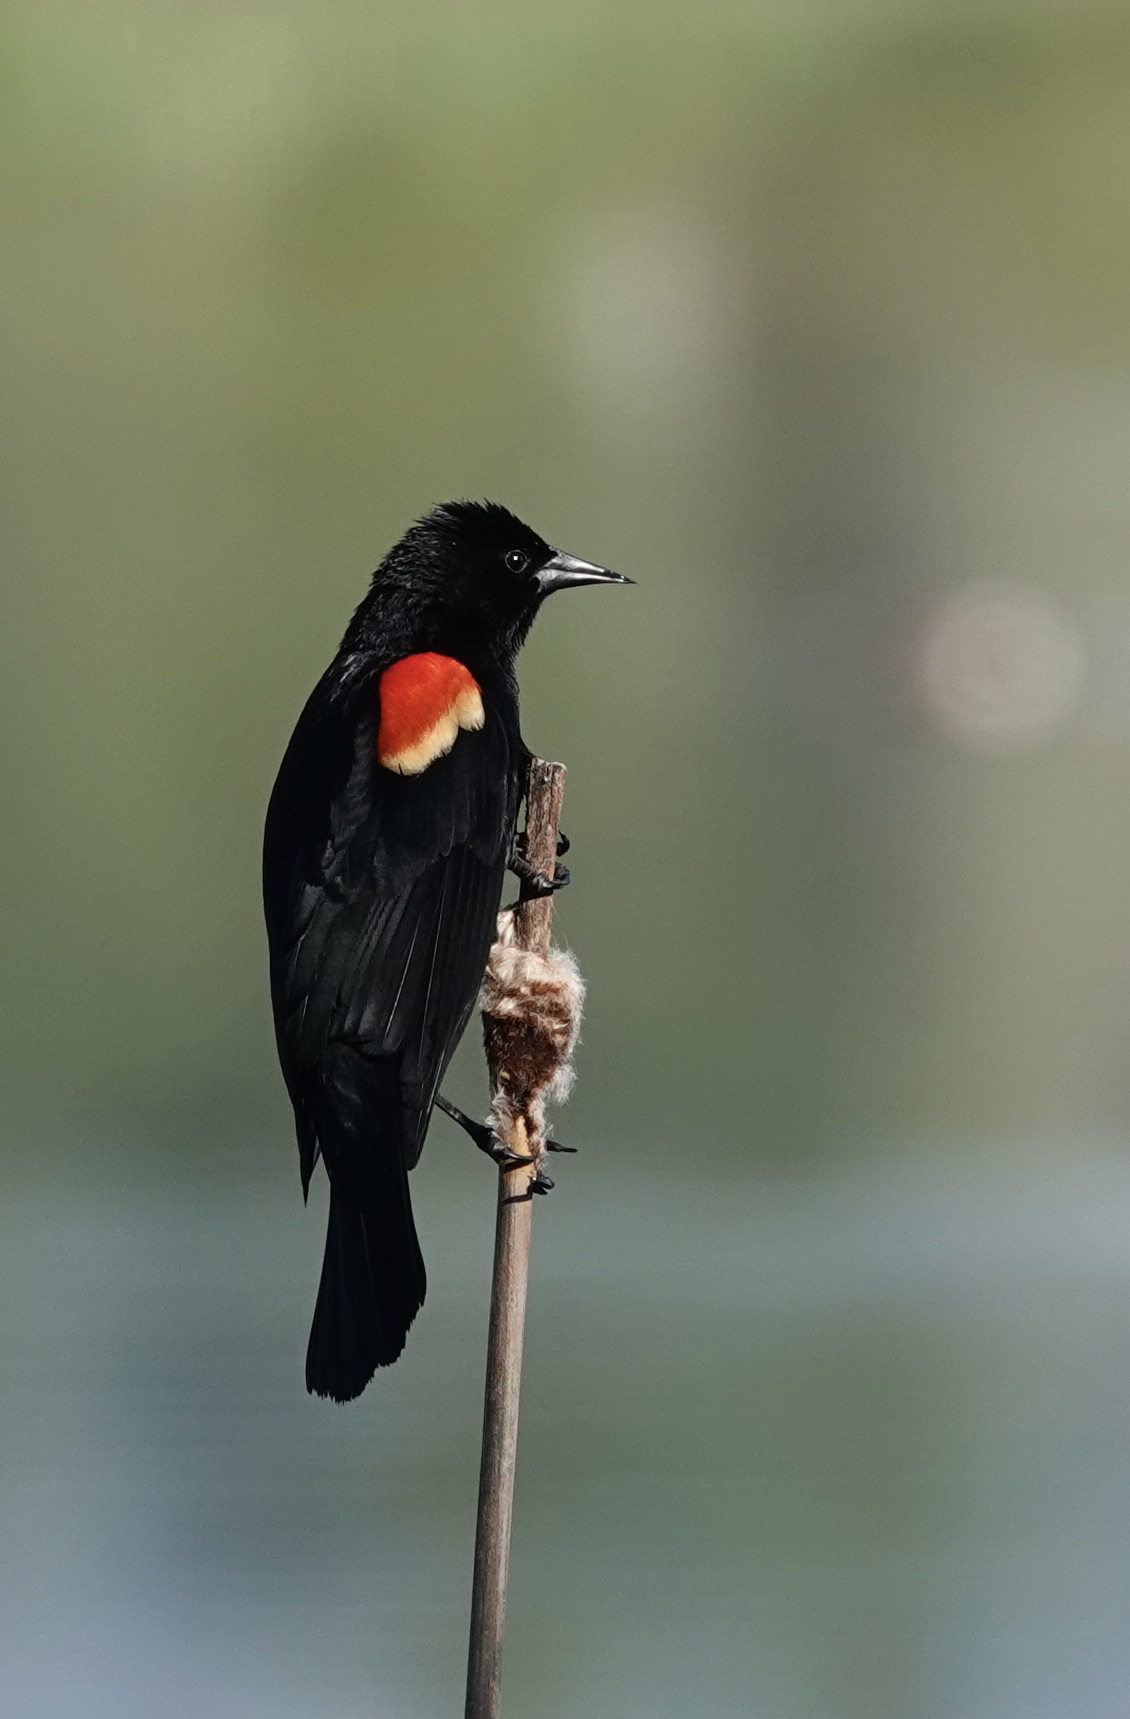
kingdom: Animalia
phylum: Chordata
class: Aves
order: Passeriformes
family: Icteridae
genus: Agelaius
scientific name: Agelaius phoeniceus
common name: Red-winged blackbird
